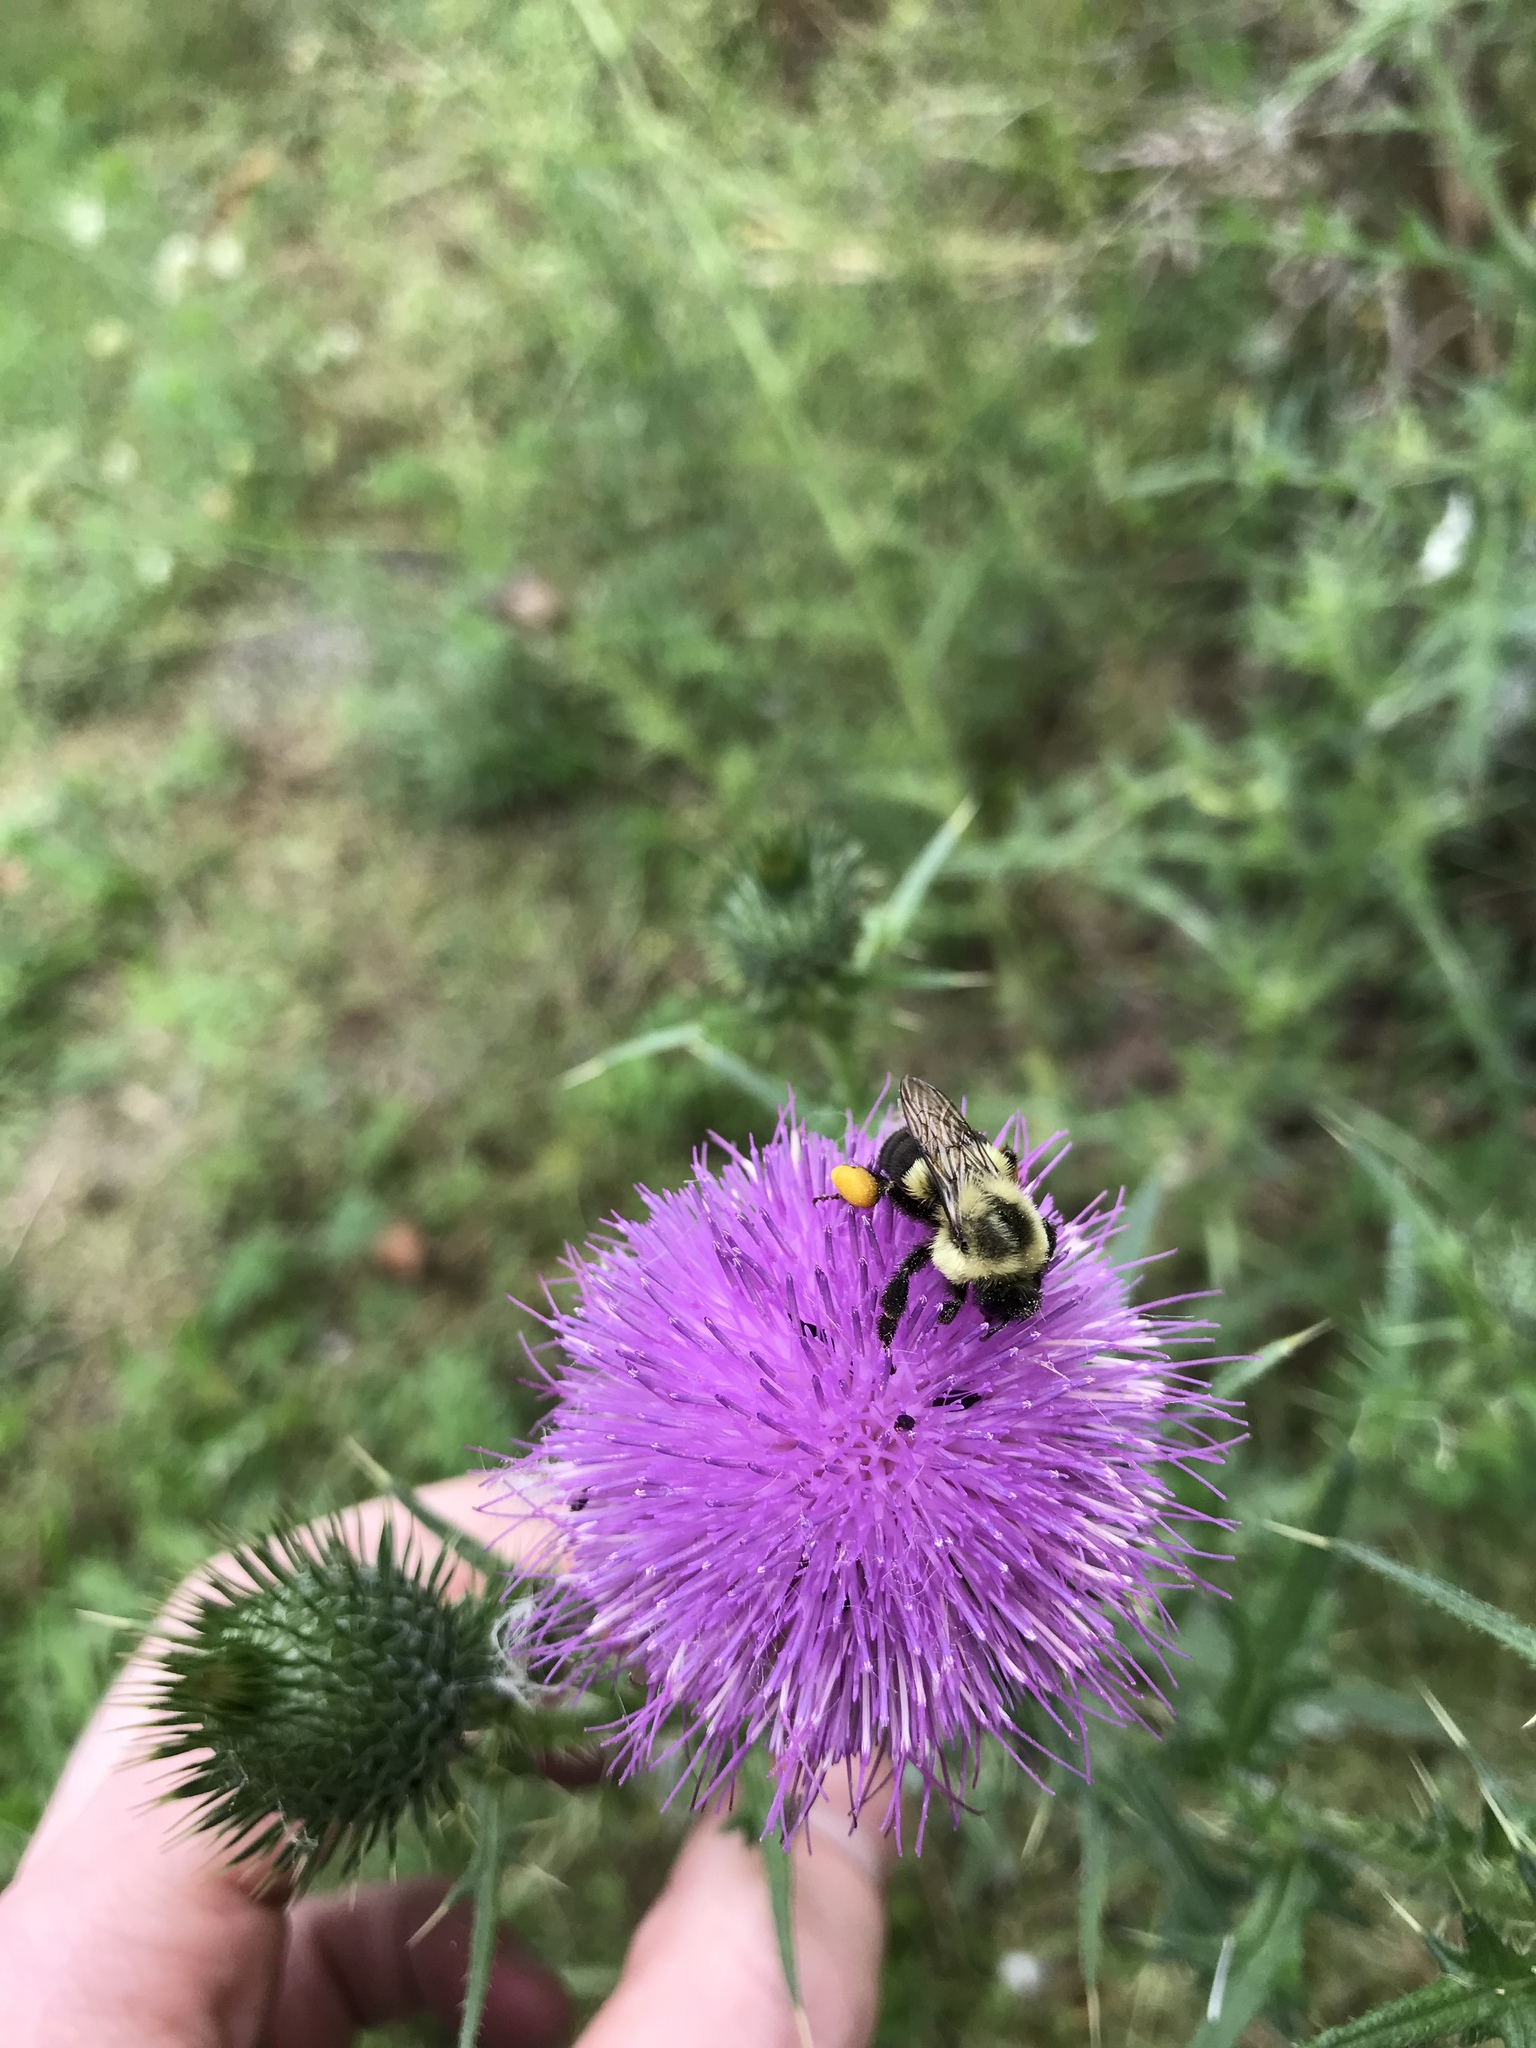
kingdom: Animalia
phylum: Arthropoda
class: Insecta
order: Hymenoptera
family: Apidae
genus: Bombus
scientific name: Bombus impatiens
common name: Common eastern bumble bee
